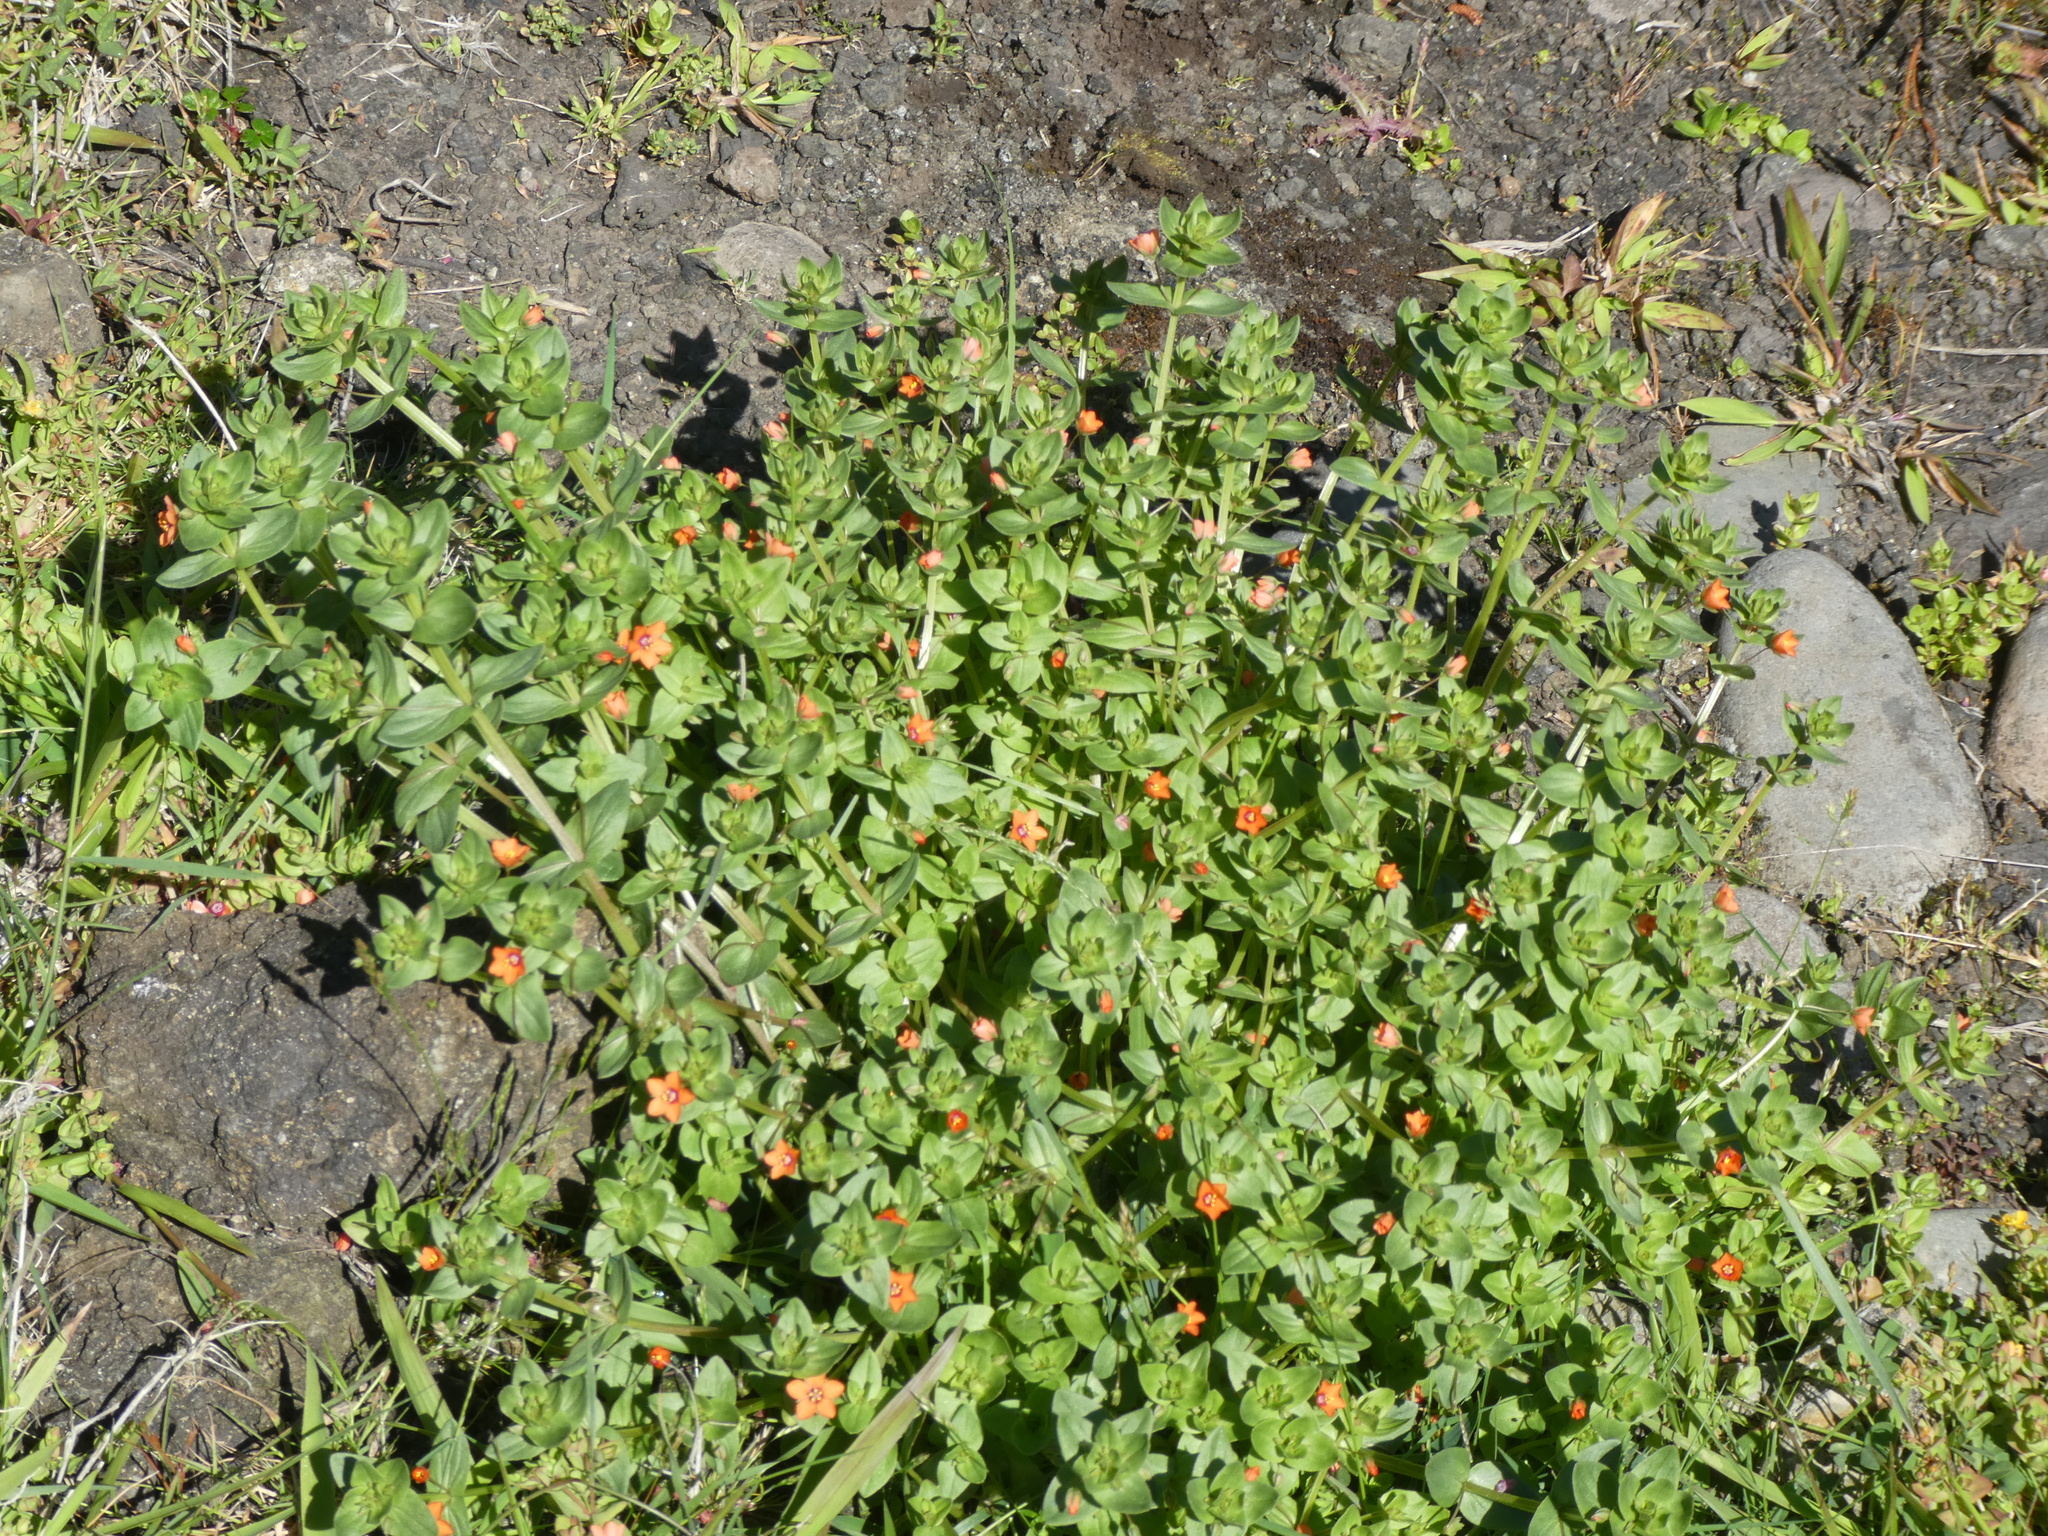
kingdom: Plantae
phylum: Tracheophyta
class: Magnoliopsida
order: Ericales
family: Primulaceae
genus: Lysimachia
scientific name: Lysimachia arvensis
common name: Scarlet pimpernel
